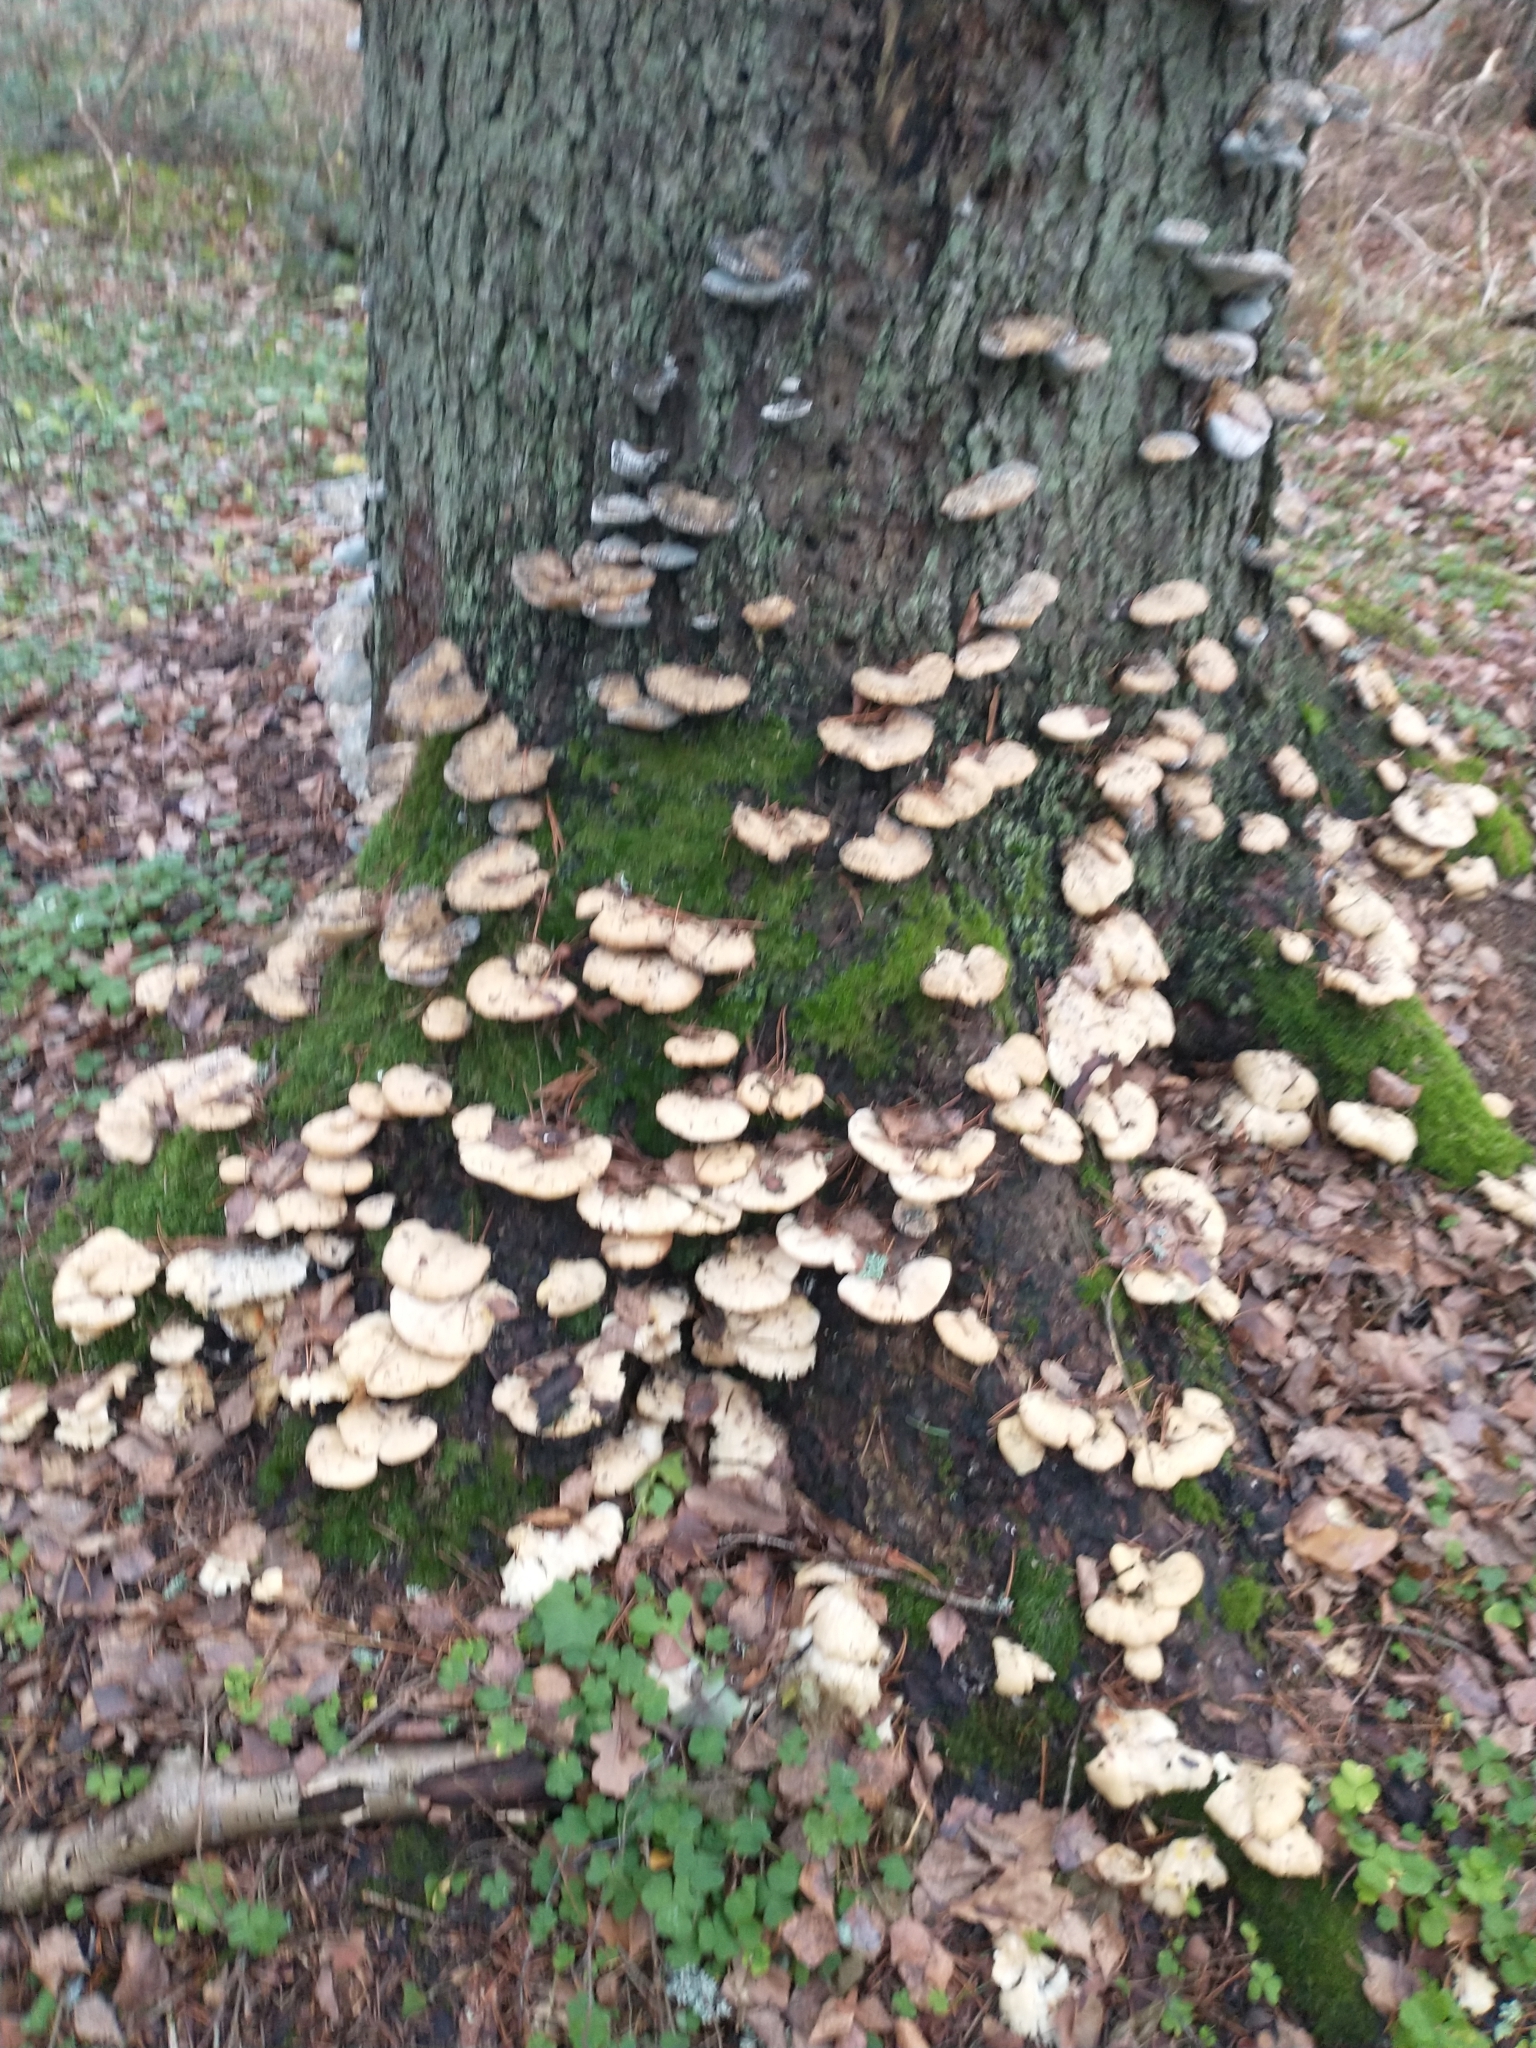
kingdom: Fungi
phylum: Basidiomycota
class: Agaricomycetes
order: Polyporales
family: Fomitopsidaceae
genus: Climacocystis
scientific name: Climacocystis borealis
